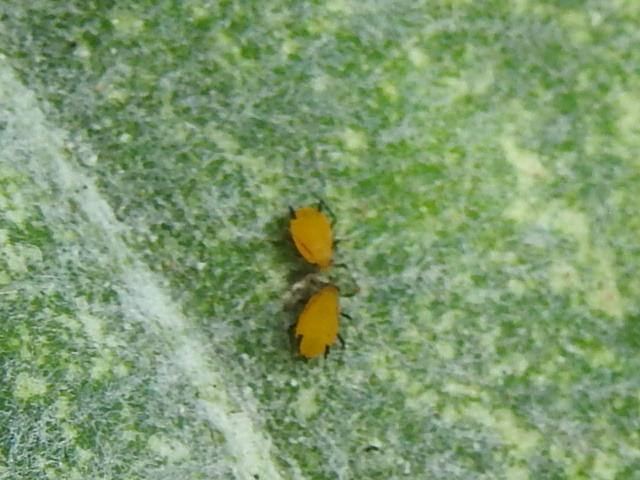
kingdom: Animalia
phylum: Arthropoda
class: Insecta
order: Hemiptera
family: Aphididae
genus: Aphis
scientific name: Aphis nerii
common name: Oleander aphid
